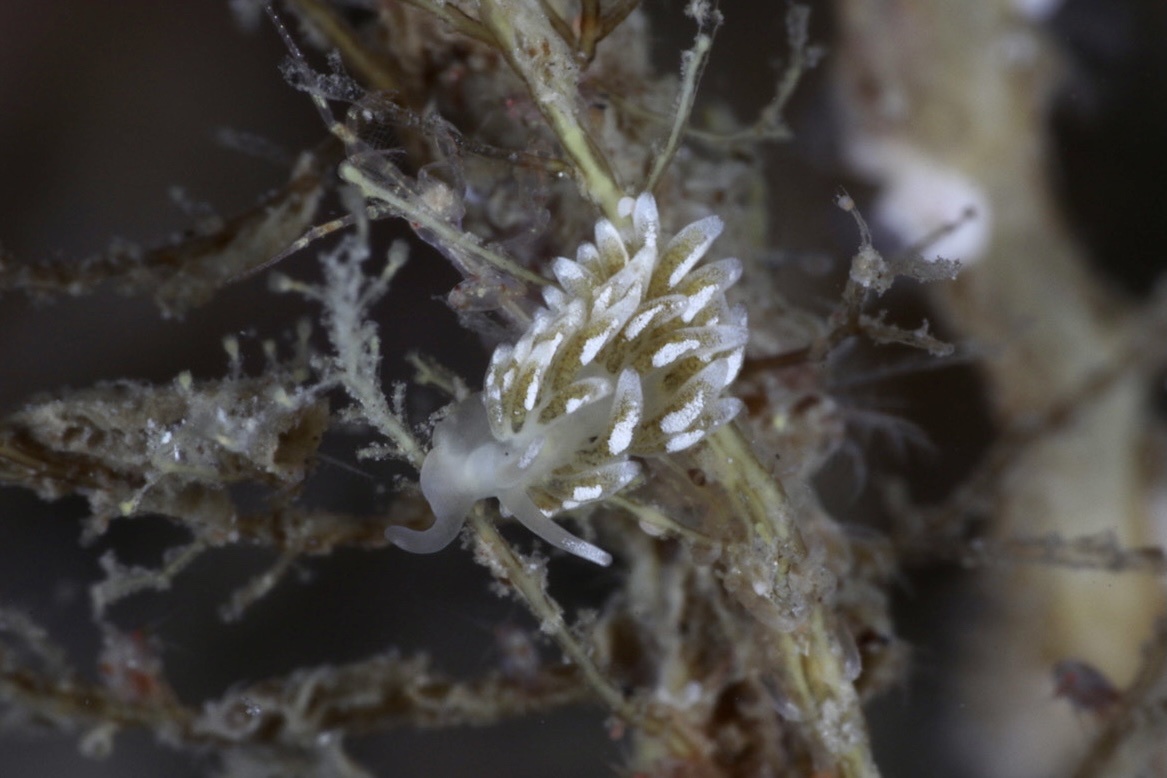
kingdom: Animalia
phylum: Mollusca
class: Gastropoda
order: Nudibranchia
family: Trinchesiidae
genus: Zelentia
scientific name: Zelentia pustulata
